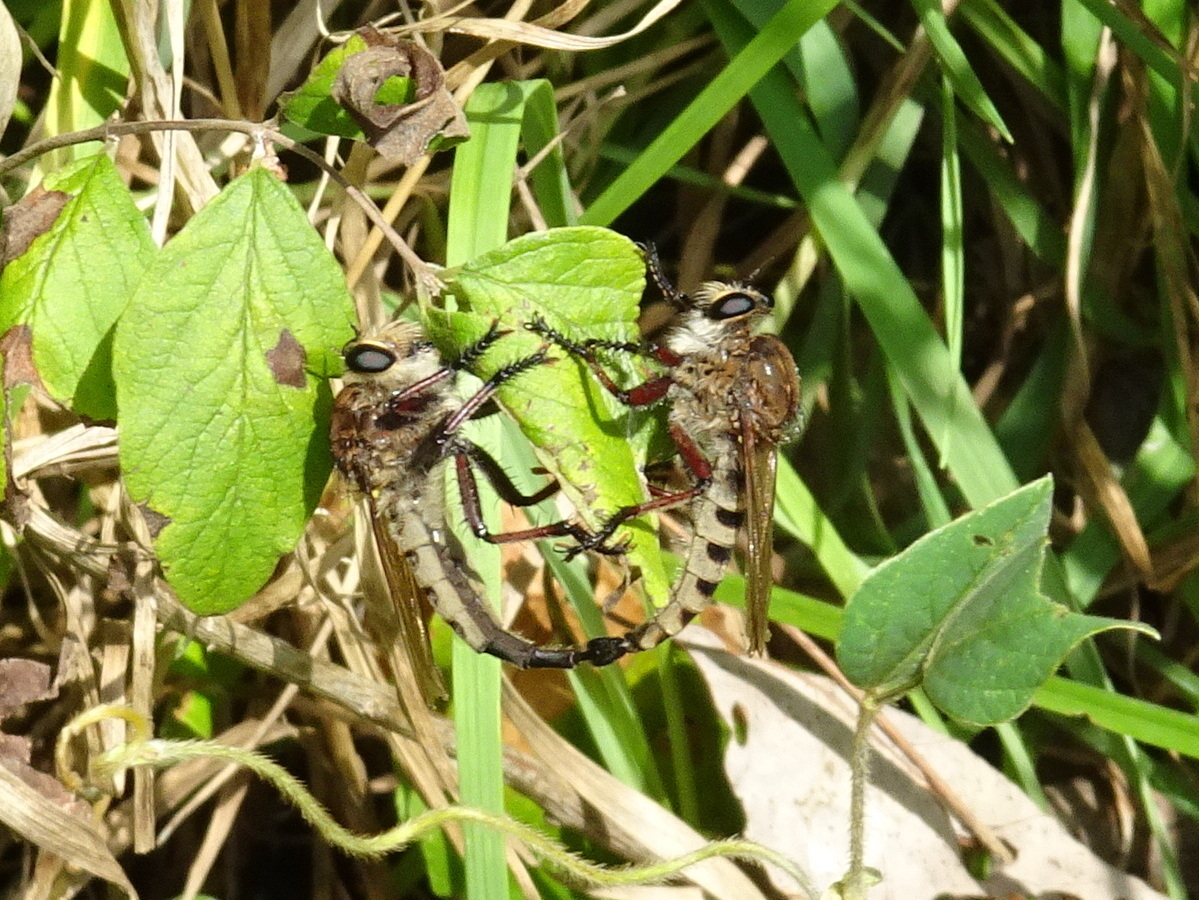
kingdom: Animalia
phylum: Arthropoda
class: Insecta
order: Diptera
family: Asilidae
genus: Promachus
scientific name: Promachus hinei
